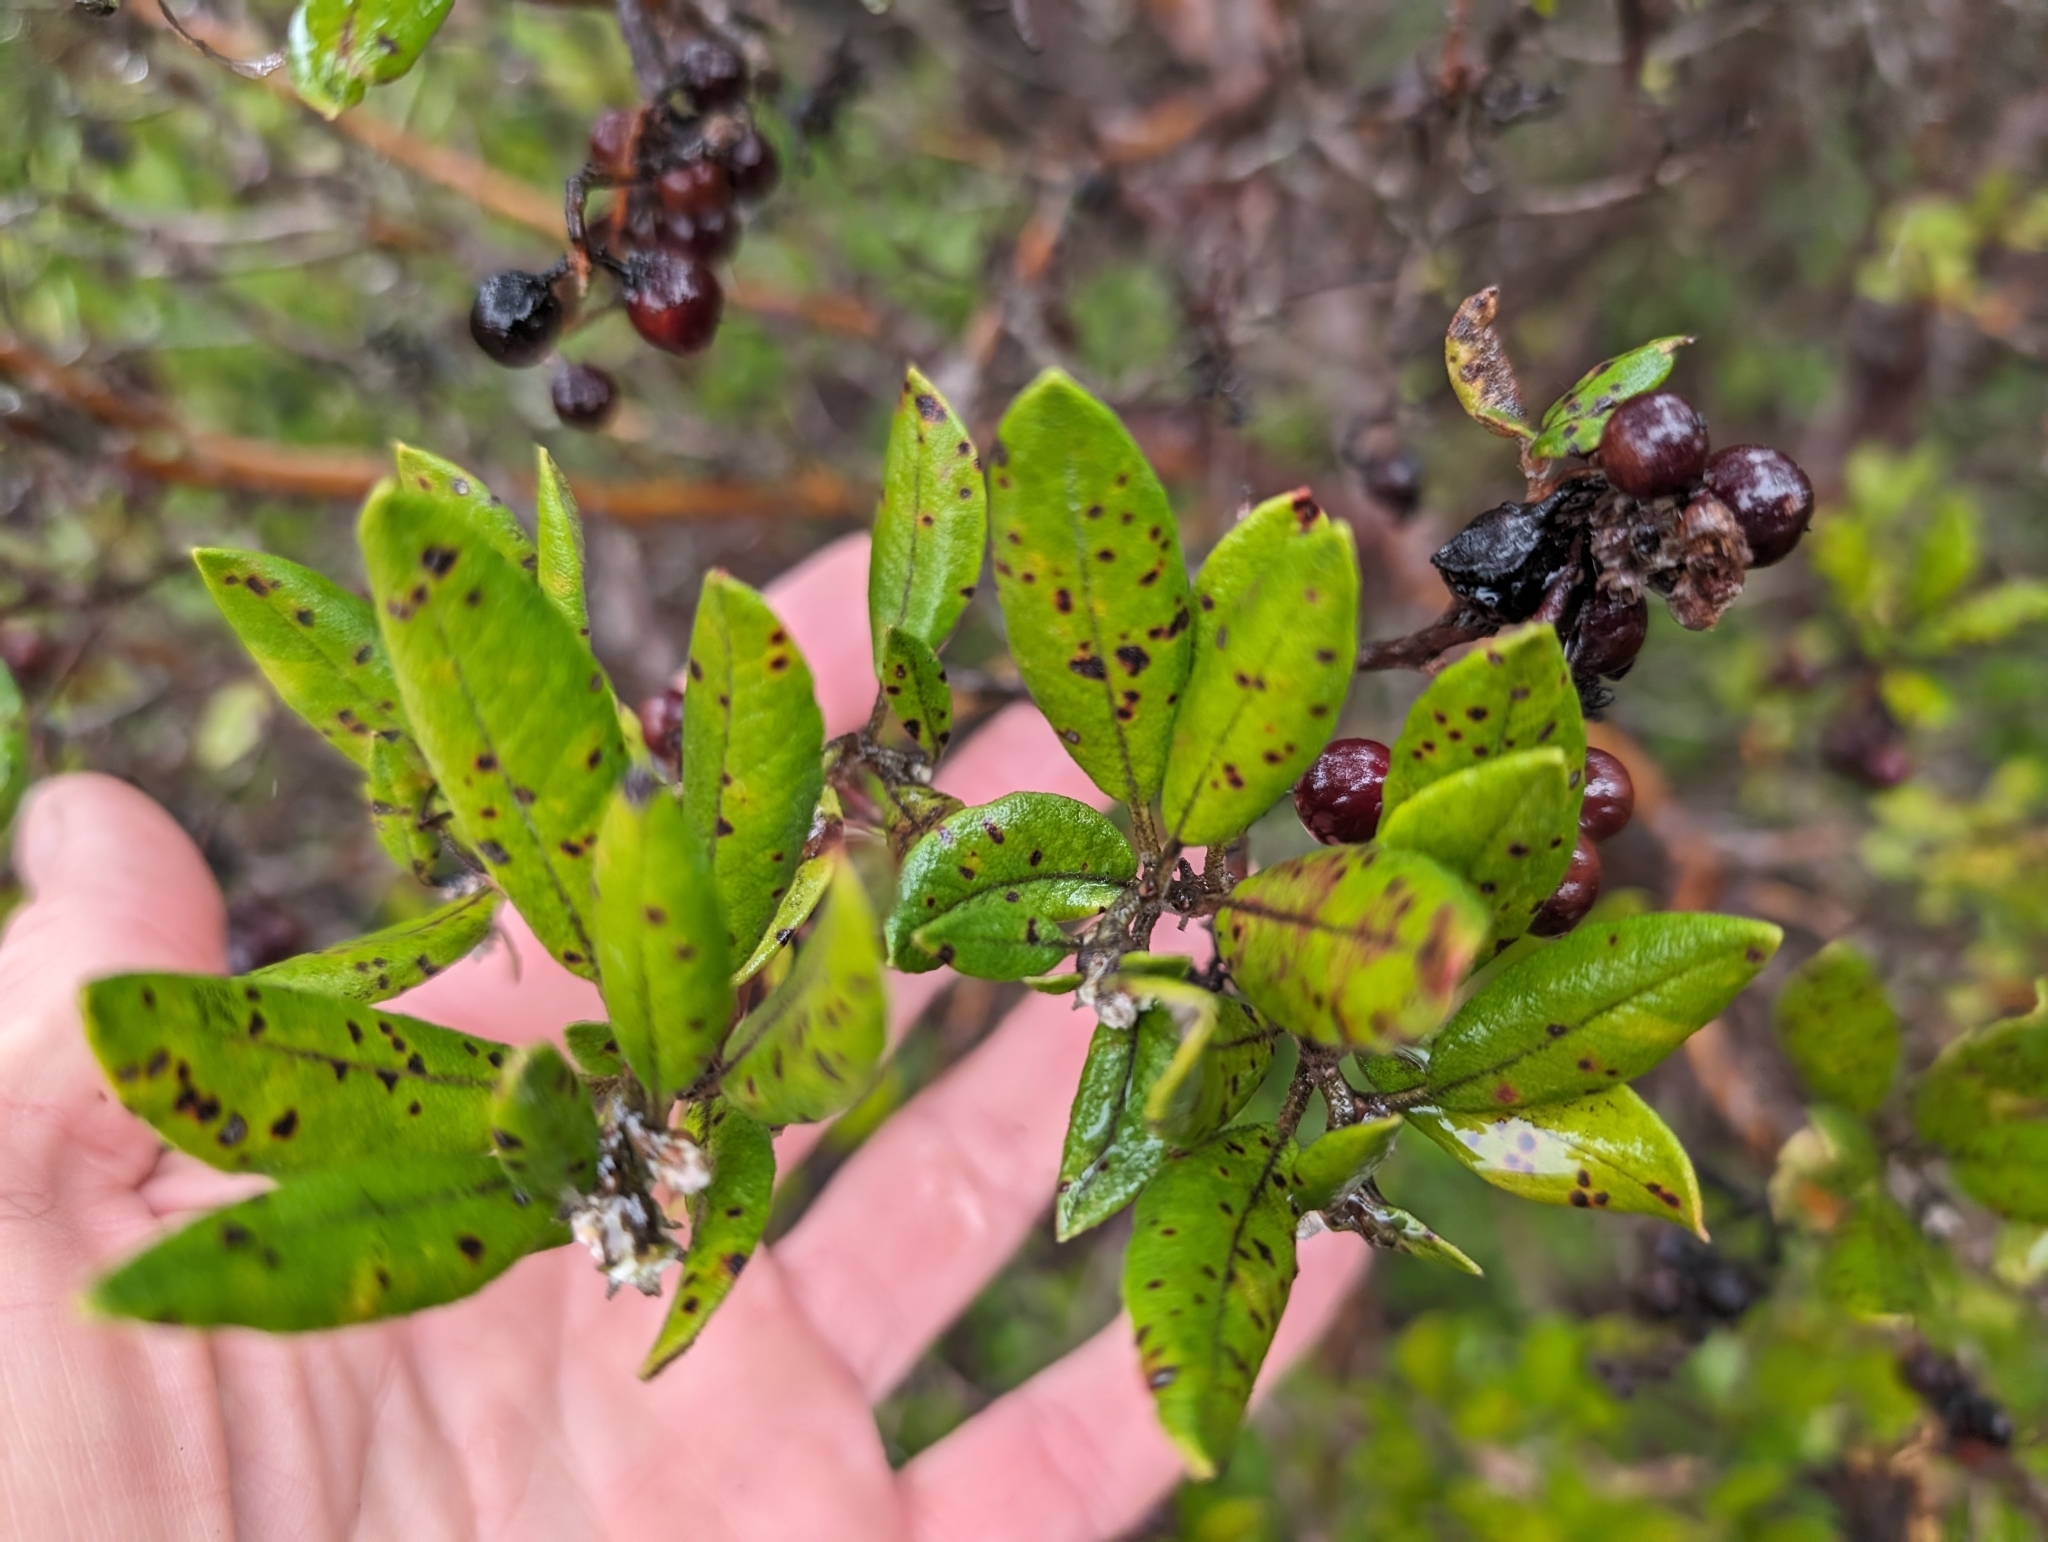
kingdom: Plantae
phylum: Tracheophyta
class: Magnoliopsida
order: Ericales
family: Ericaceae
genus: Arctostaphylos
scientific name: Arctostaphylos bicolor
